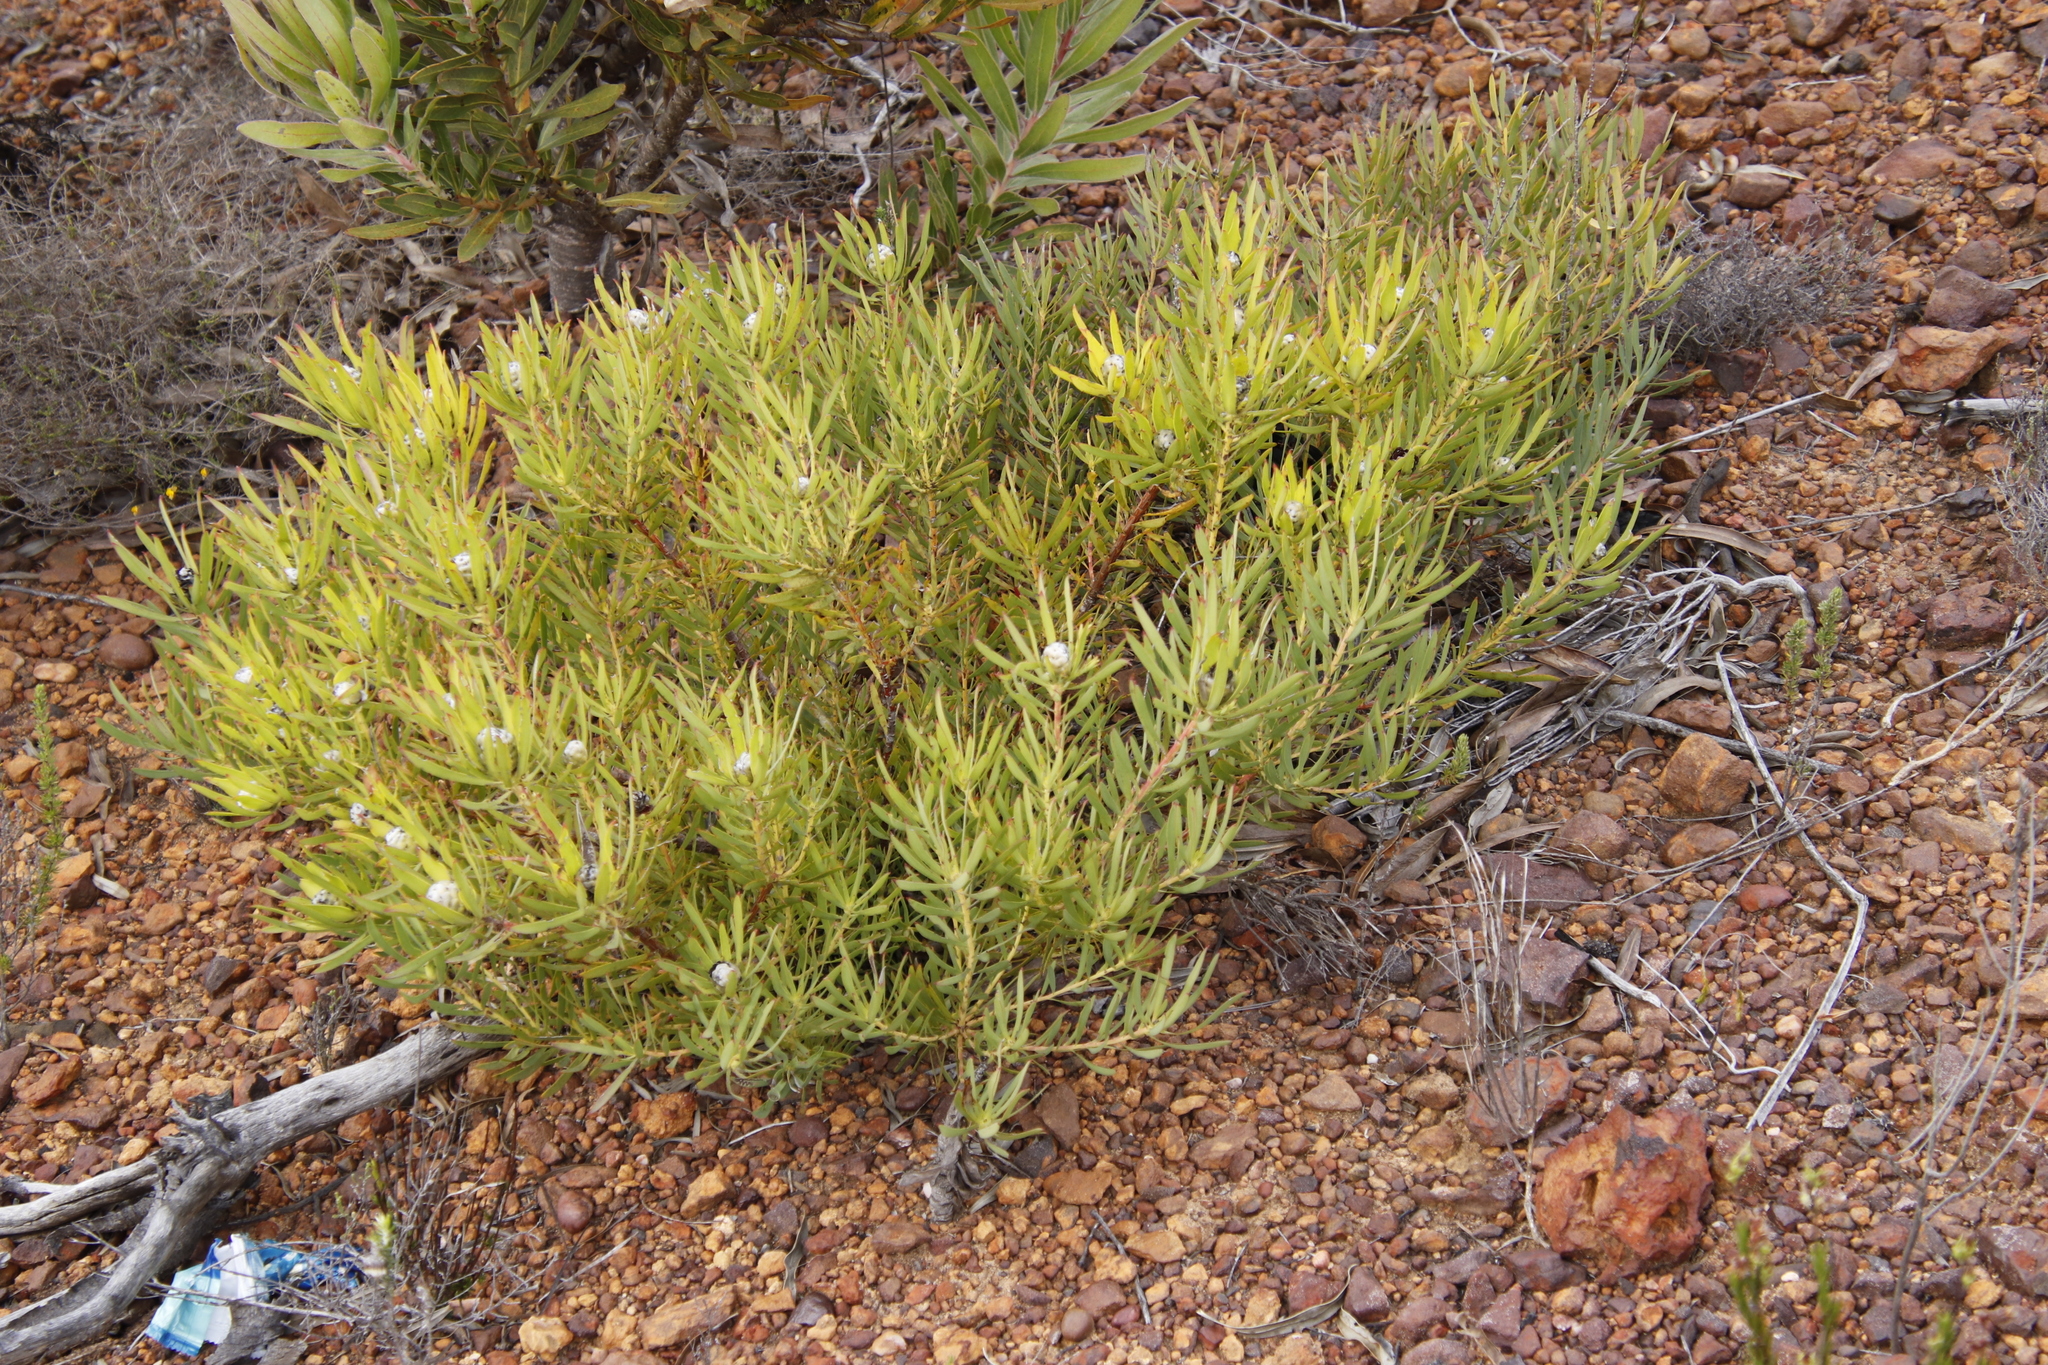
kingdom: Plantae
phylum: Tracheophyta
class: Magnoliopsida
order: Proteales
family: Proteaceae
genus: Leucadendron
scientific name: Leucadendron salignum
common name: Common sunshine conebush
